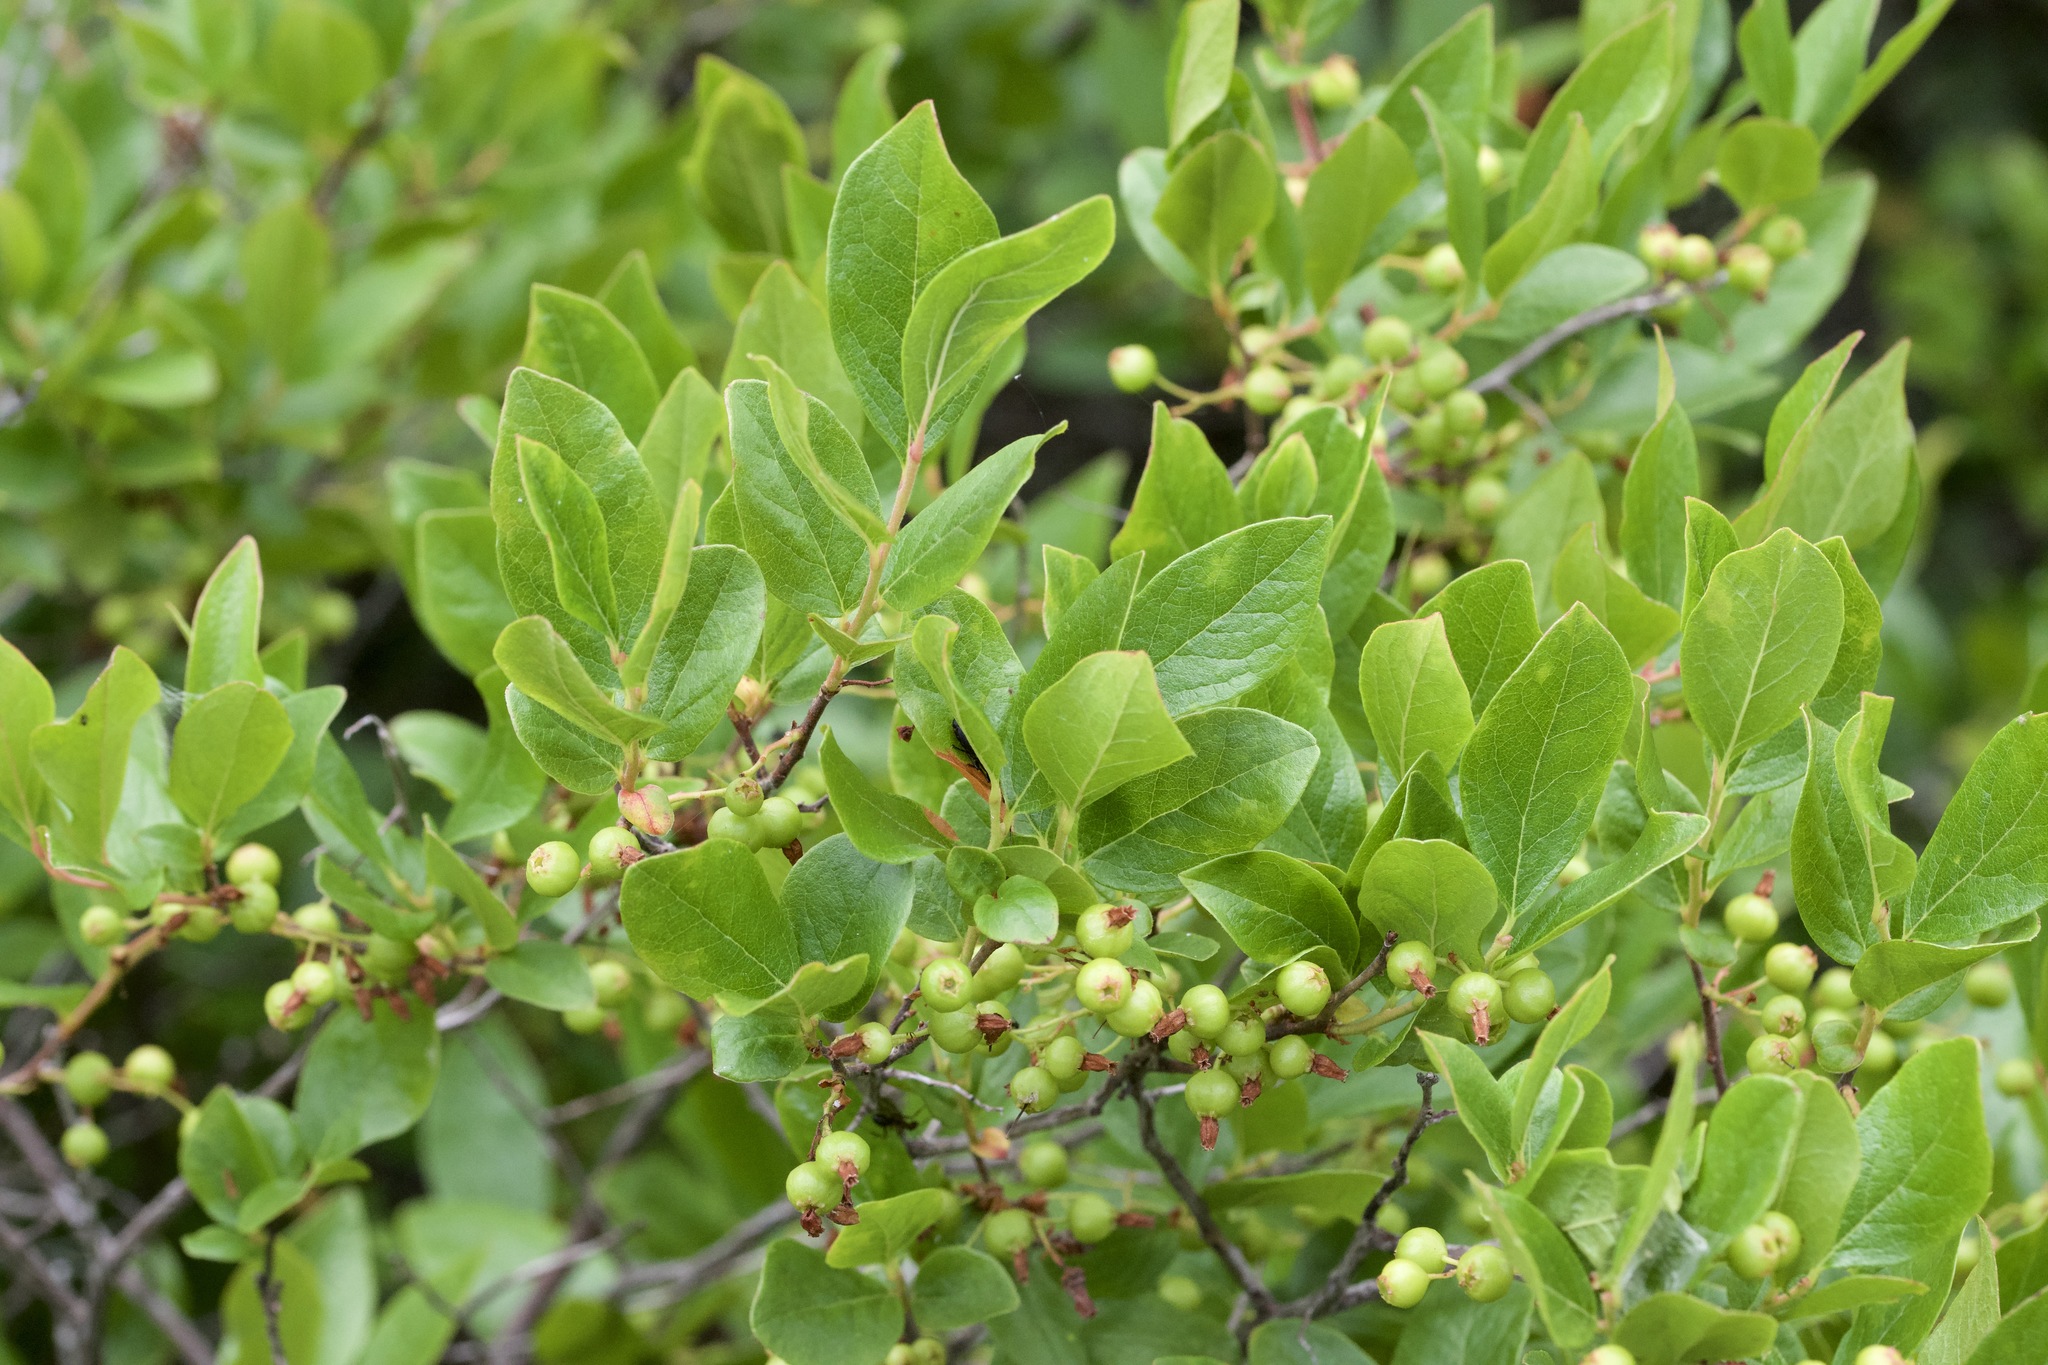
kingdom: Plantae
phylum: Tracheophyta
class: Magnoliopsida
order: Ericales
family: Ericaceae
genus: Gaylussacia
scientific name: Gaylussacia baccata
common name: Black huckleberry
